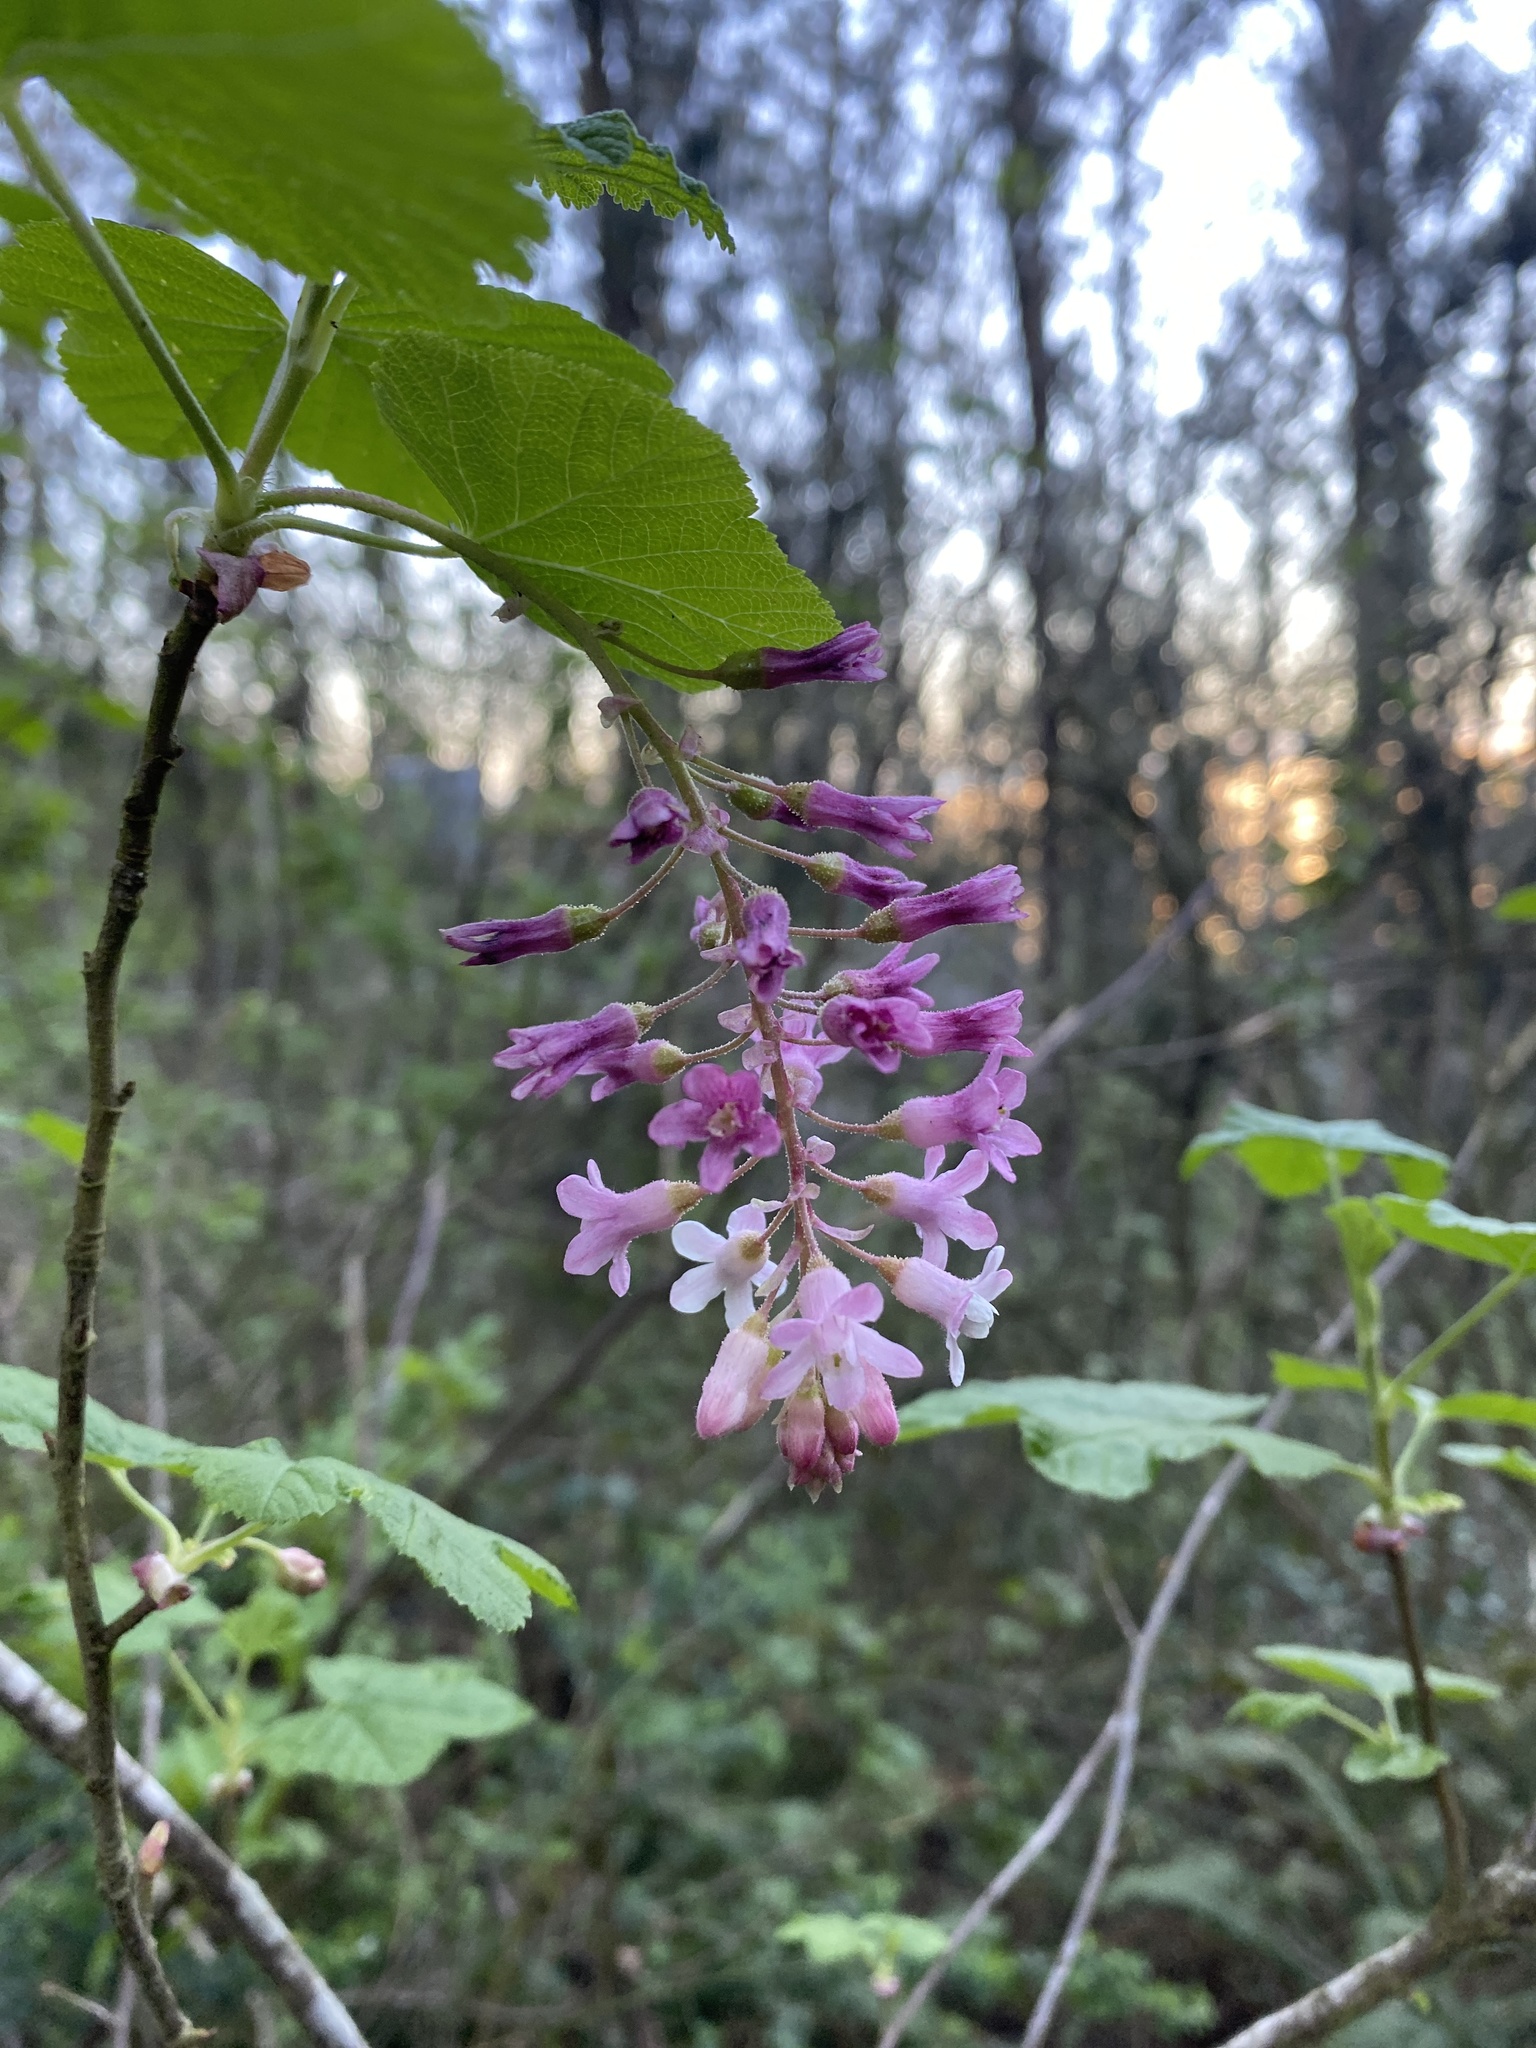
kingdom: Plantae
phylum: Tracheophyta
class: Magnoliopsida
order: Saxifragales
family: Grossulariaceae
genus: Ribes
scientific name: Ribes sanguineum
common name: Flowering currant
